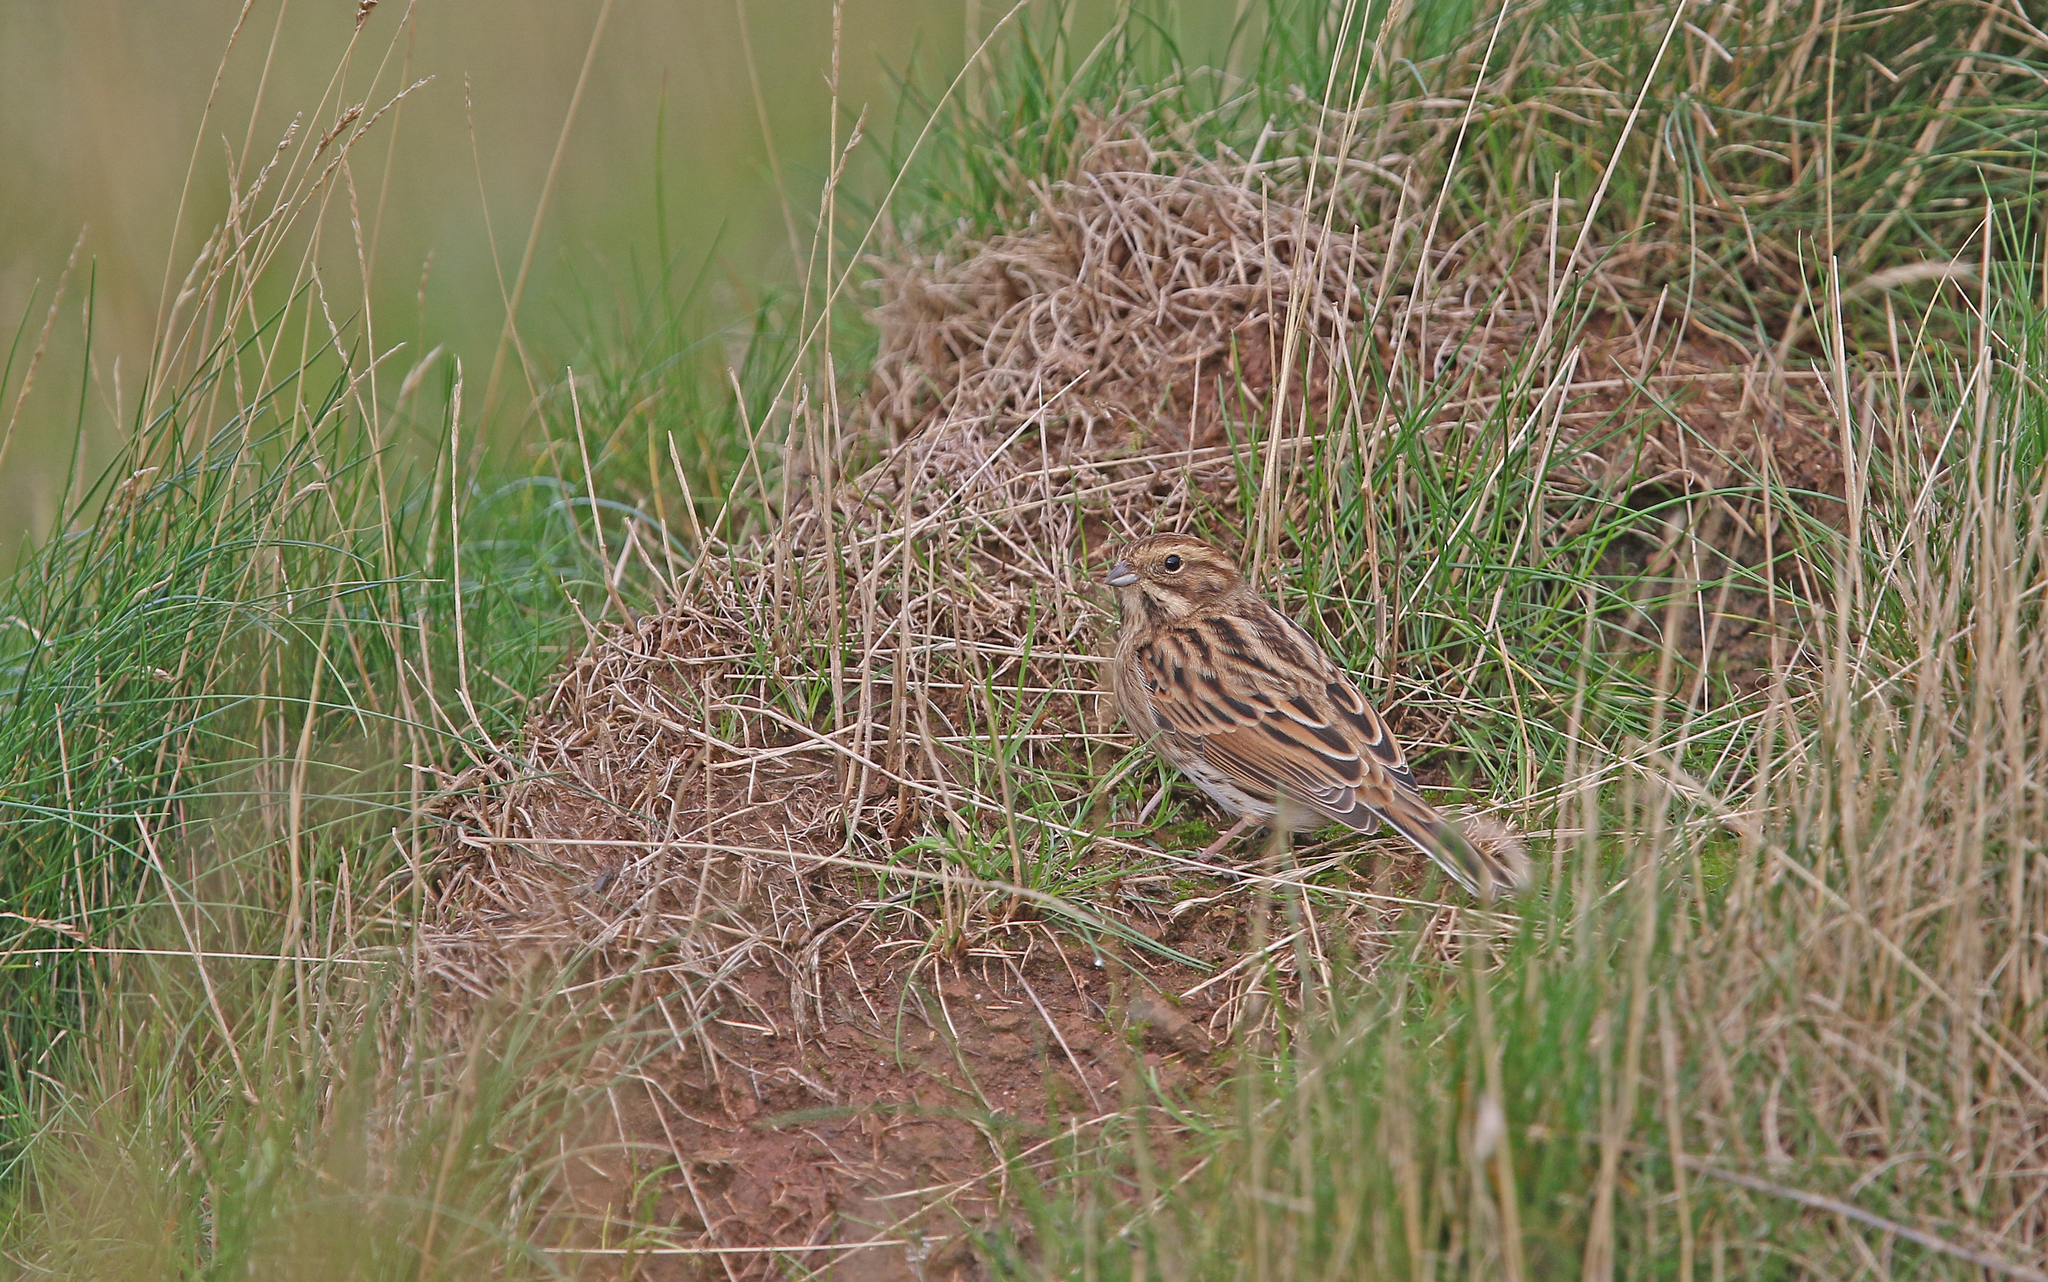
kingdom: Animalia
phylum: Chordata
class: Aves
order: Passeriformes
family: Emberizidae
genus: Emberiza
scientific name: Emberiza schoeniclus
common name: Reed bunting
